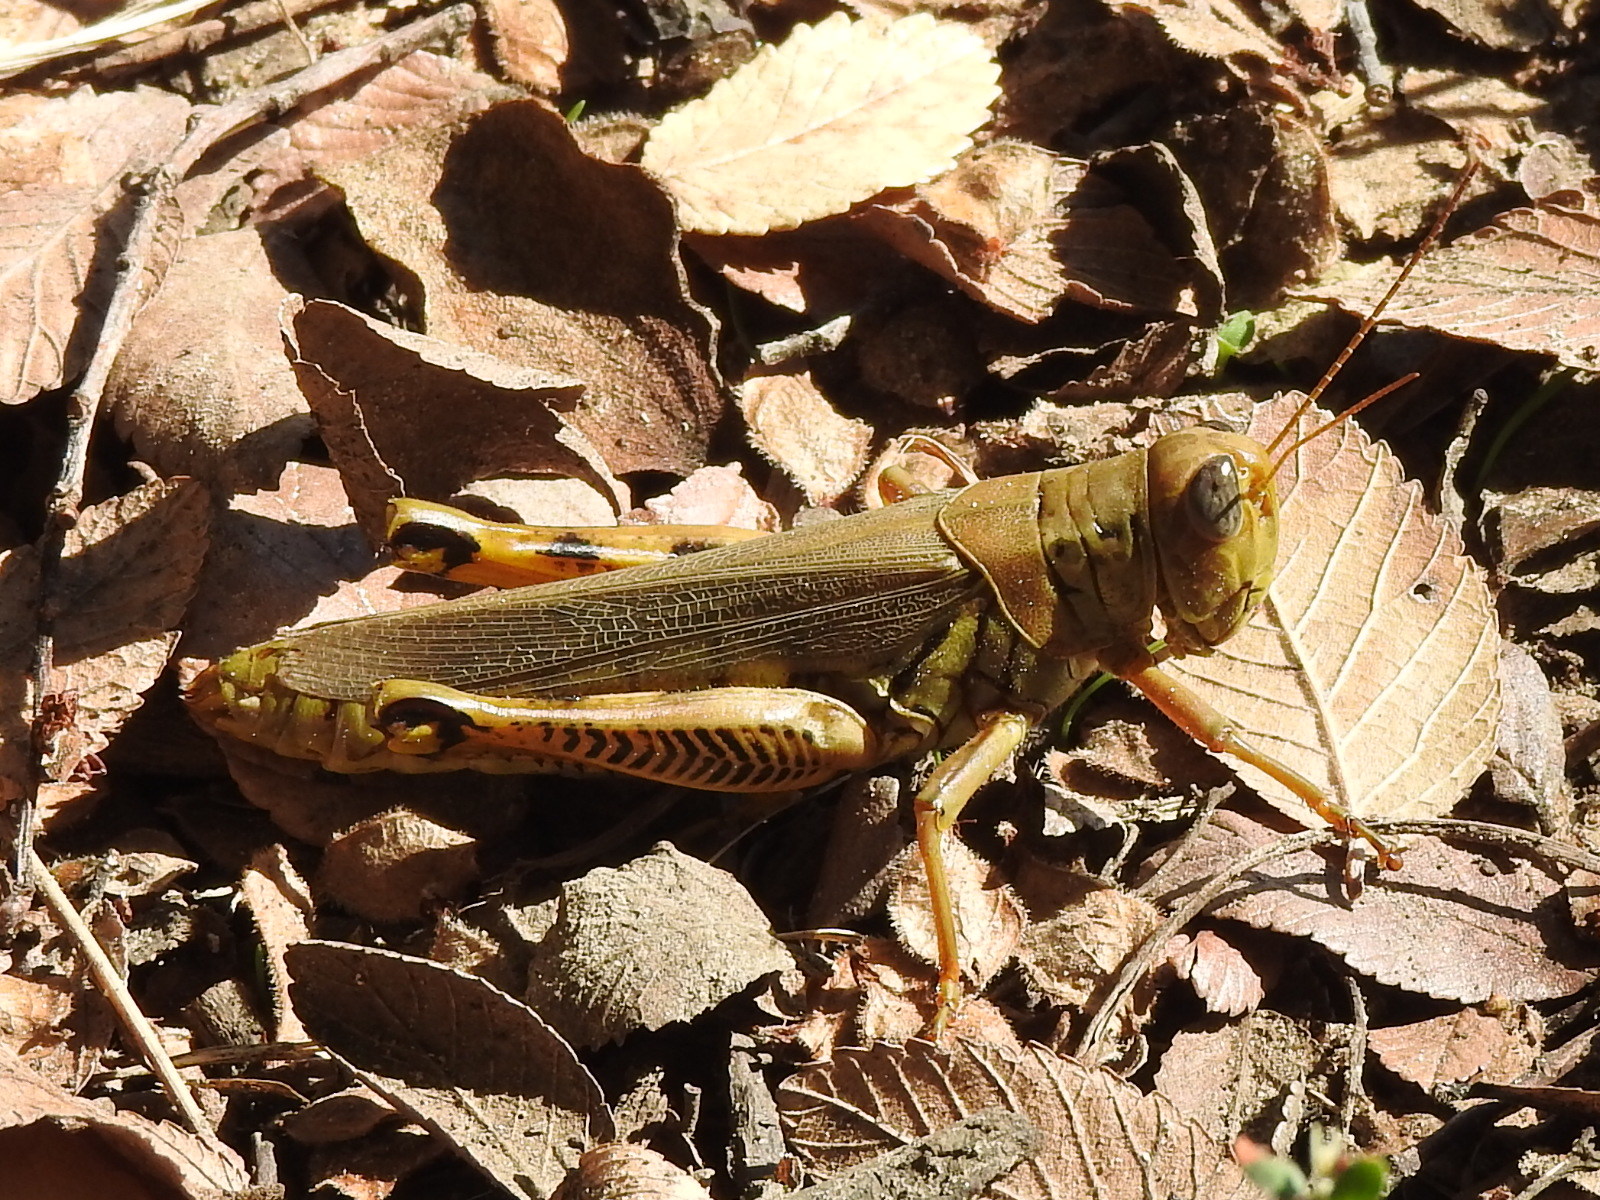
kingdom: Animalia
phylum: Arthropoda
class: Insecta
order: Orthoptera
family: Acrididae
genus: Melanoplus
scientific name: Melanoplus differentialis
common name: Differential grasshopper
